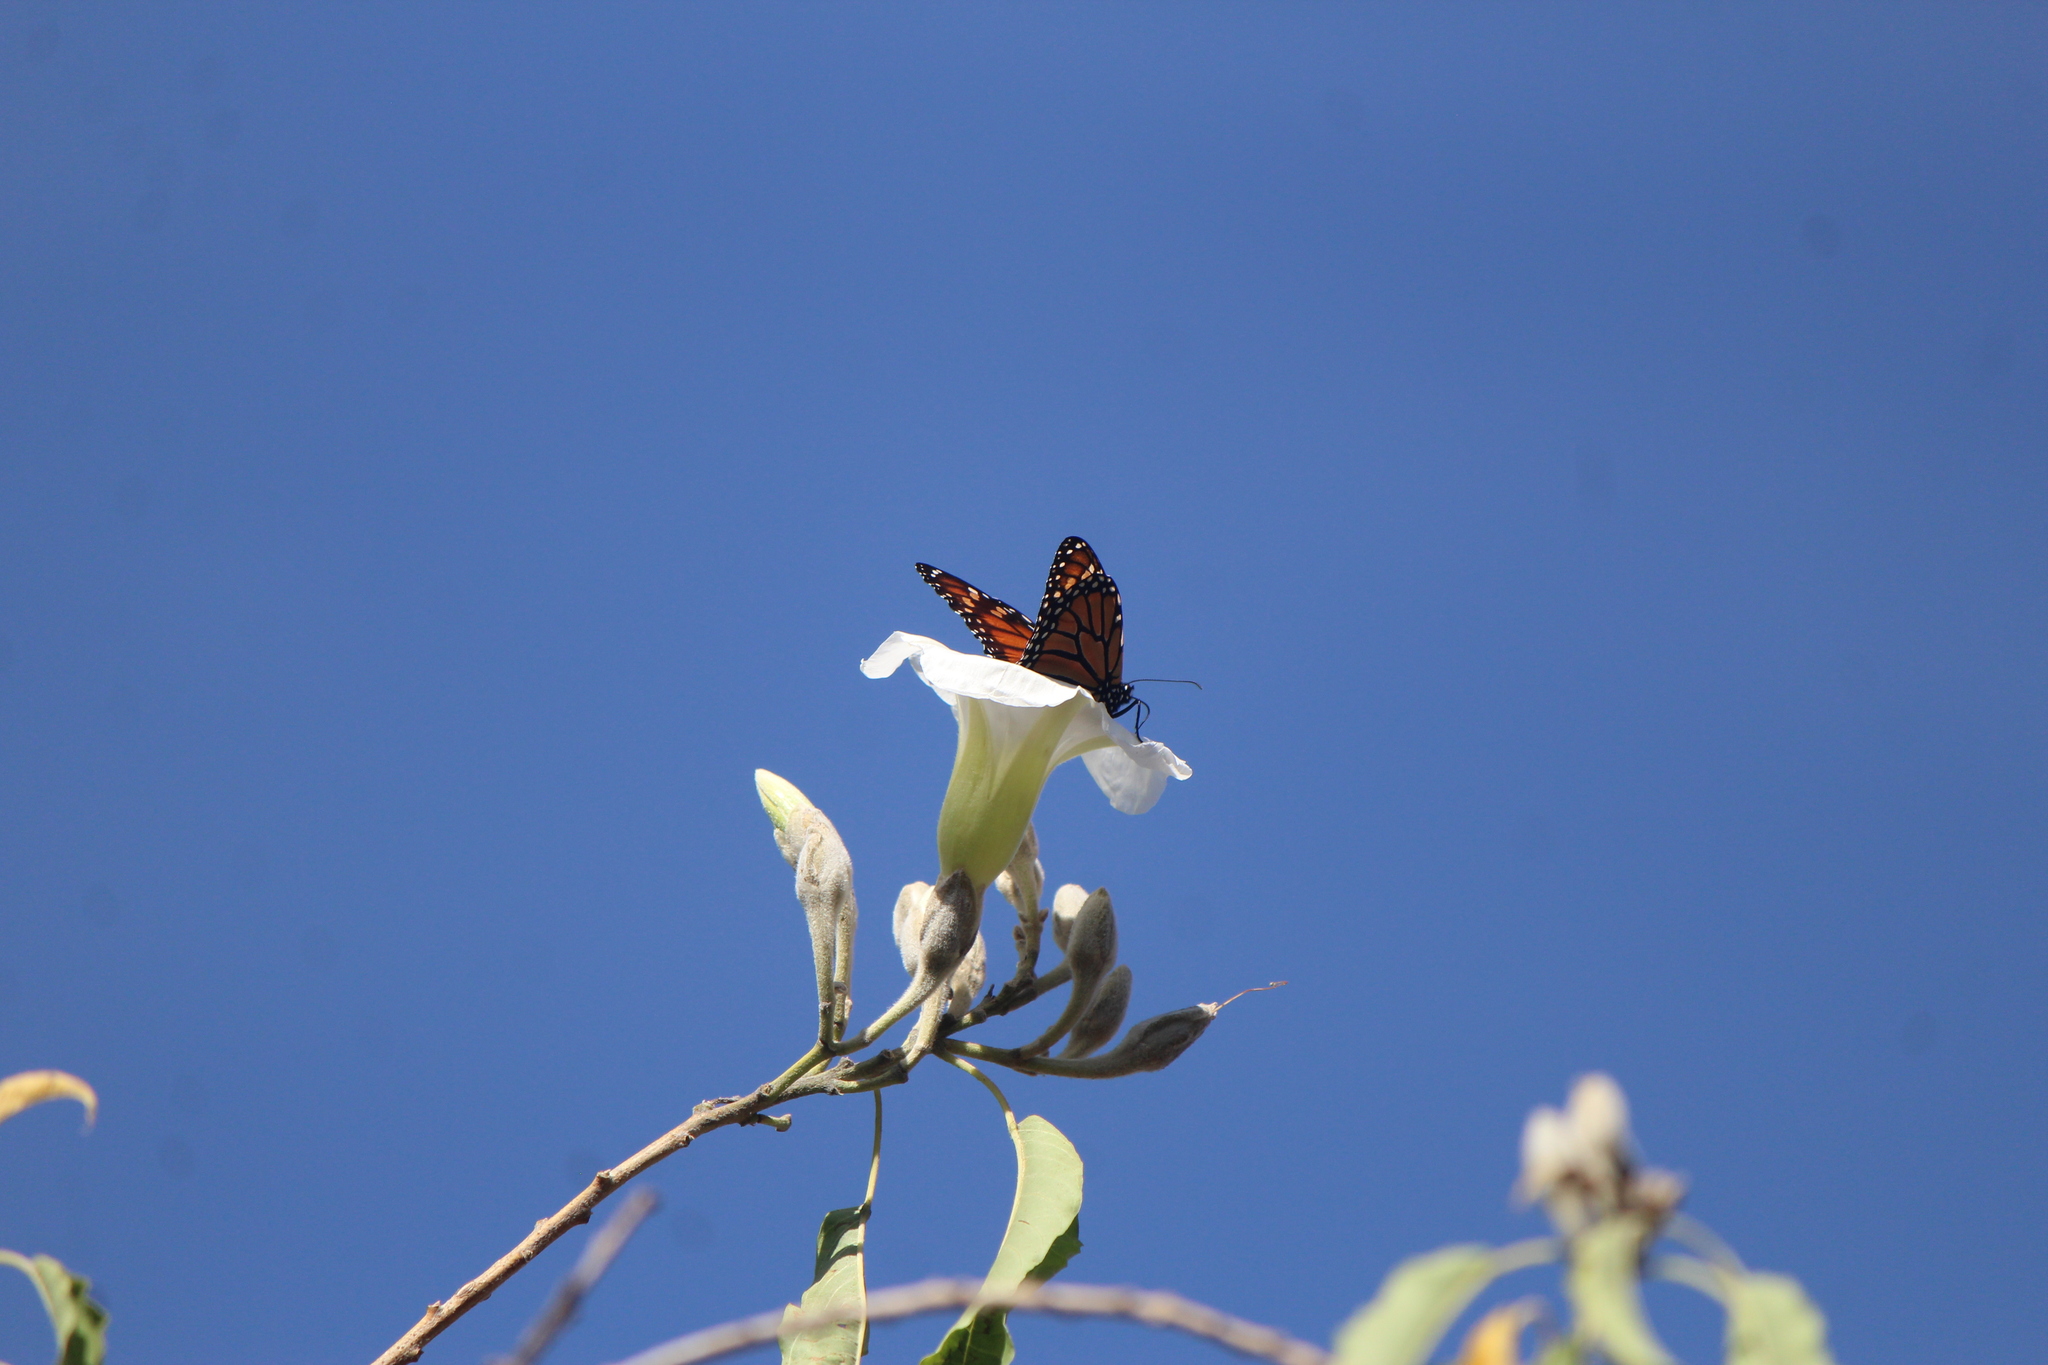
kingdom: Animalia
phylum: Arthropoda
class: Insecta
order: Lepidoptera
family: Nymphalidae
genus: Danaus
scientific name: Danaus plexippus
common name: Monarch
